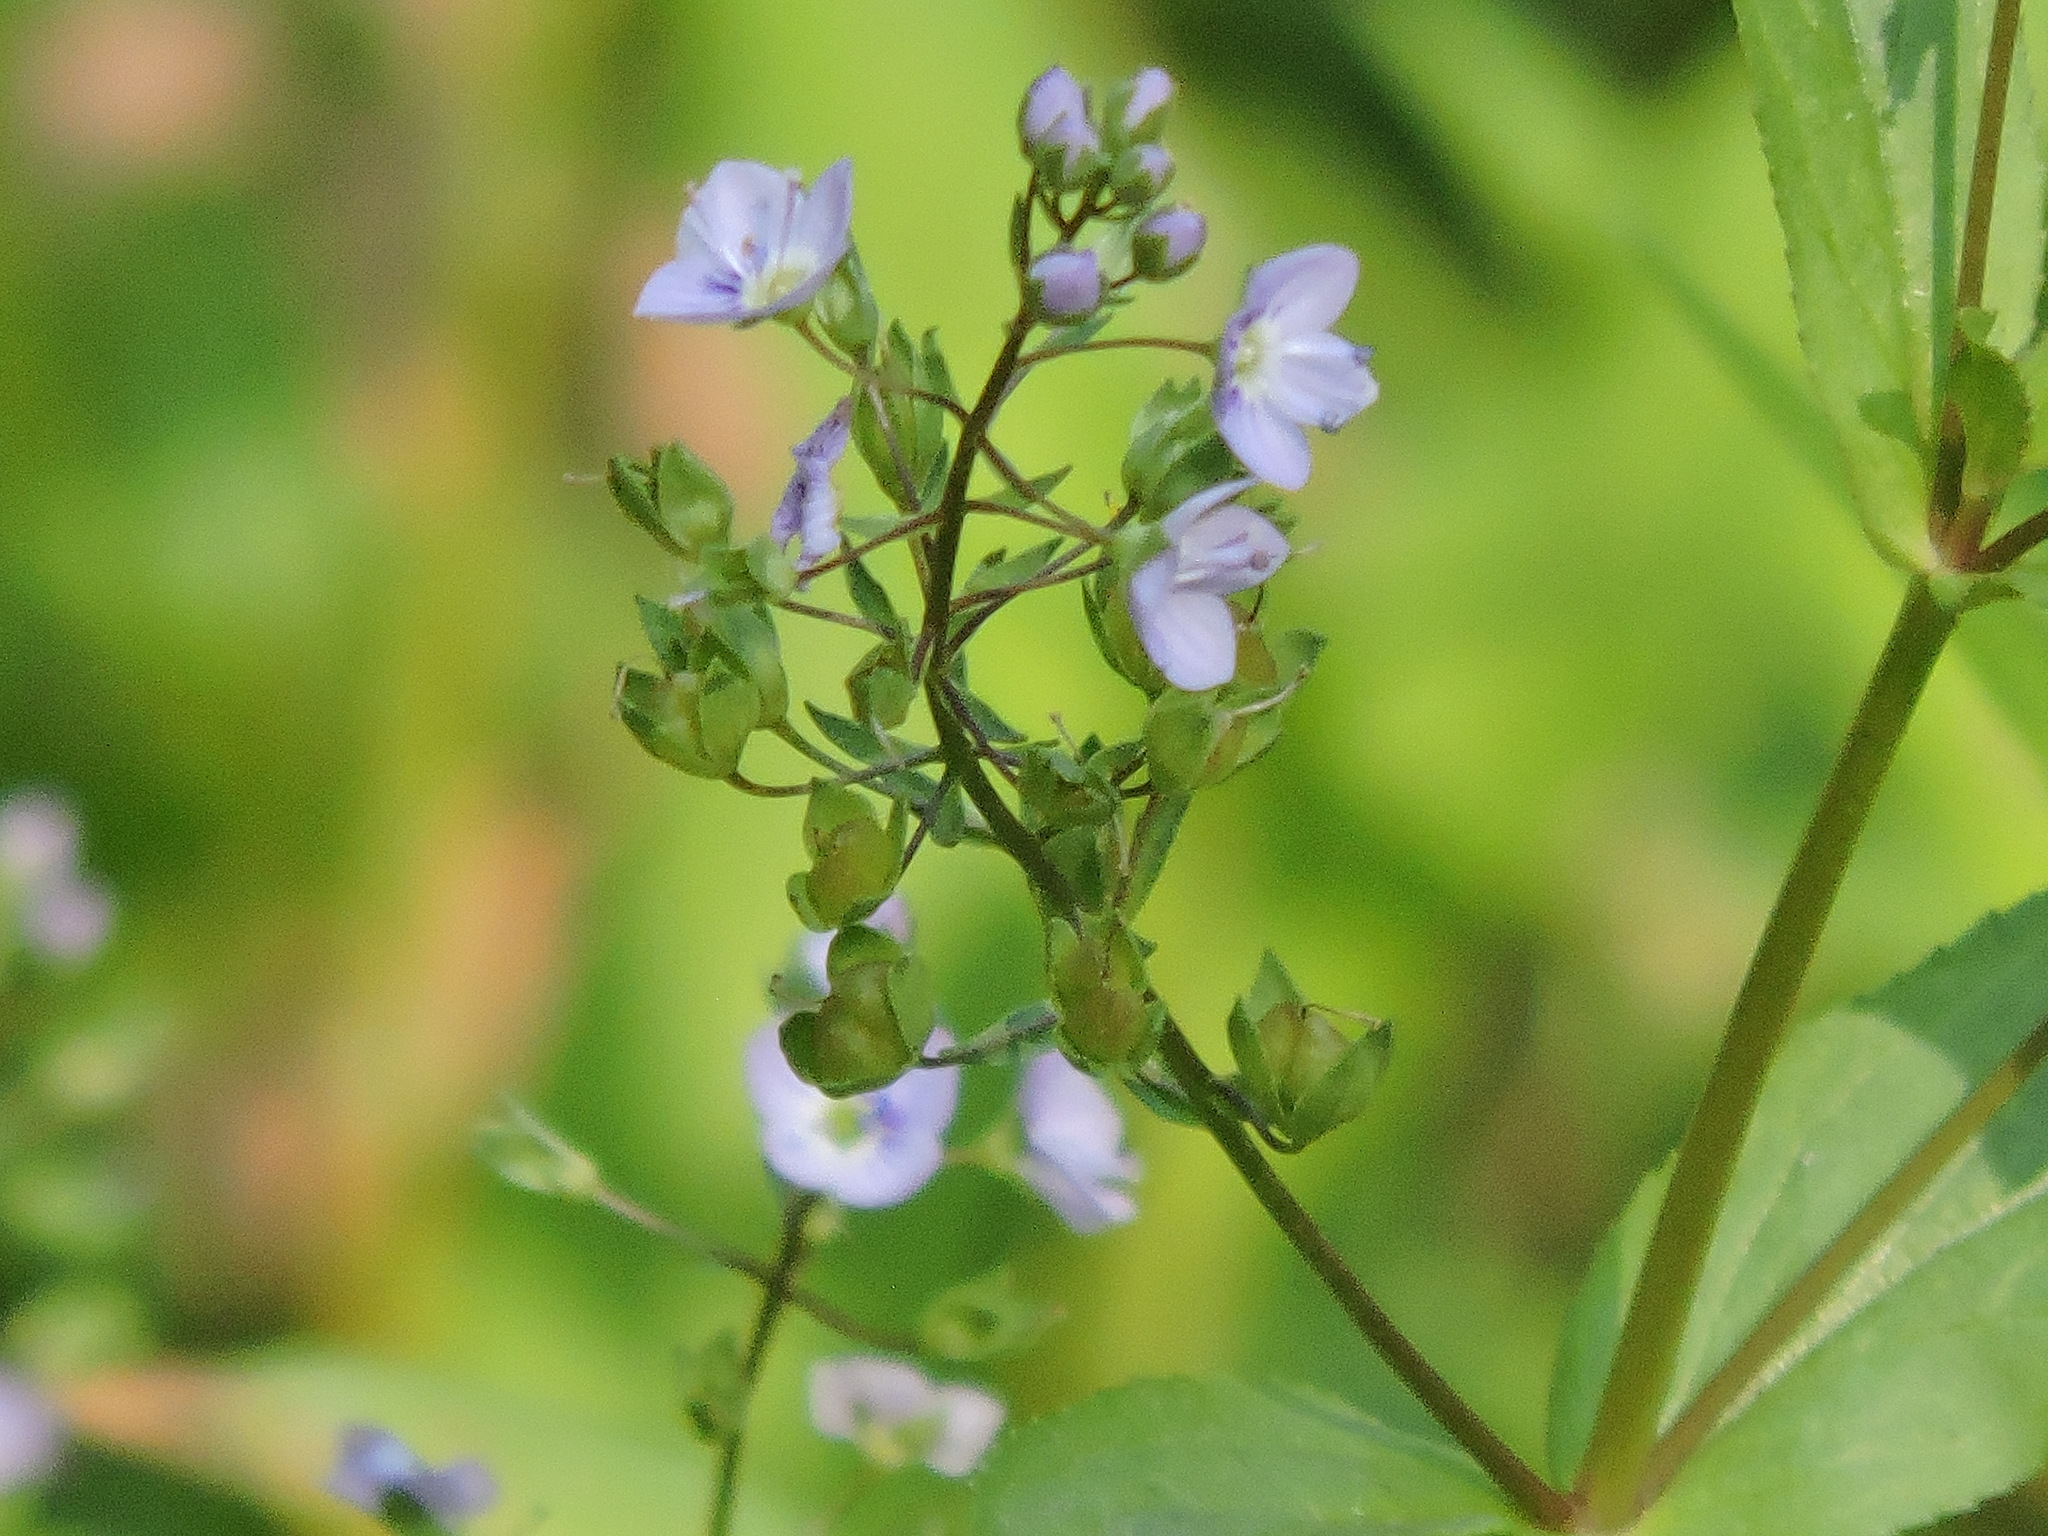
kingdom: Plantae
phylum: Tracheophyta
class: Magnoliopsida
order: Lamiales
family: Plantaginaceae
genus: Veronica
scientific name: Veronica anagallis-aquatica
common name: Water speedwell
